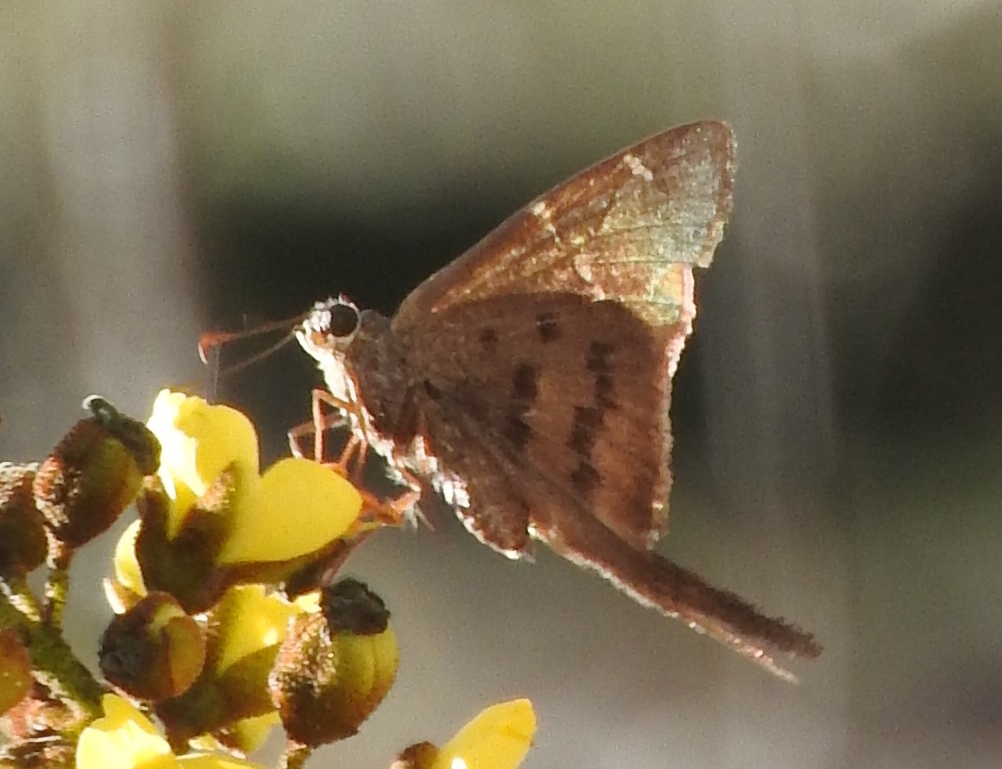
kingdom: Animalia
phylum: Arthropoda
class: Insecta
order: Lepidoptera
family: Hesperiidae
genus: Urbanus
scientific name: Urbanus procne
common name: Brown longtail
